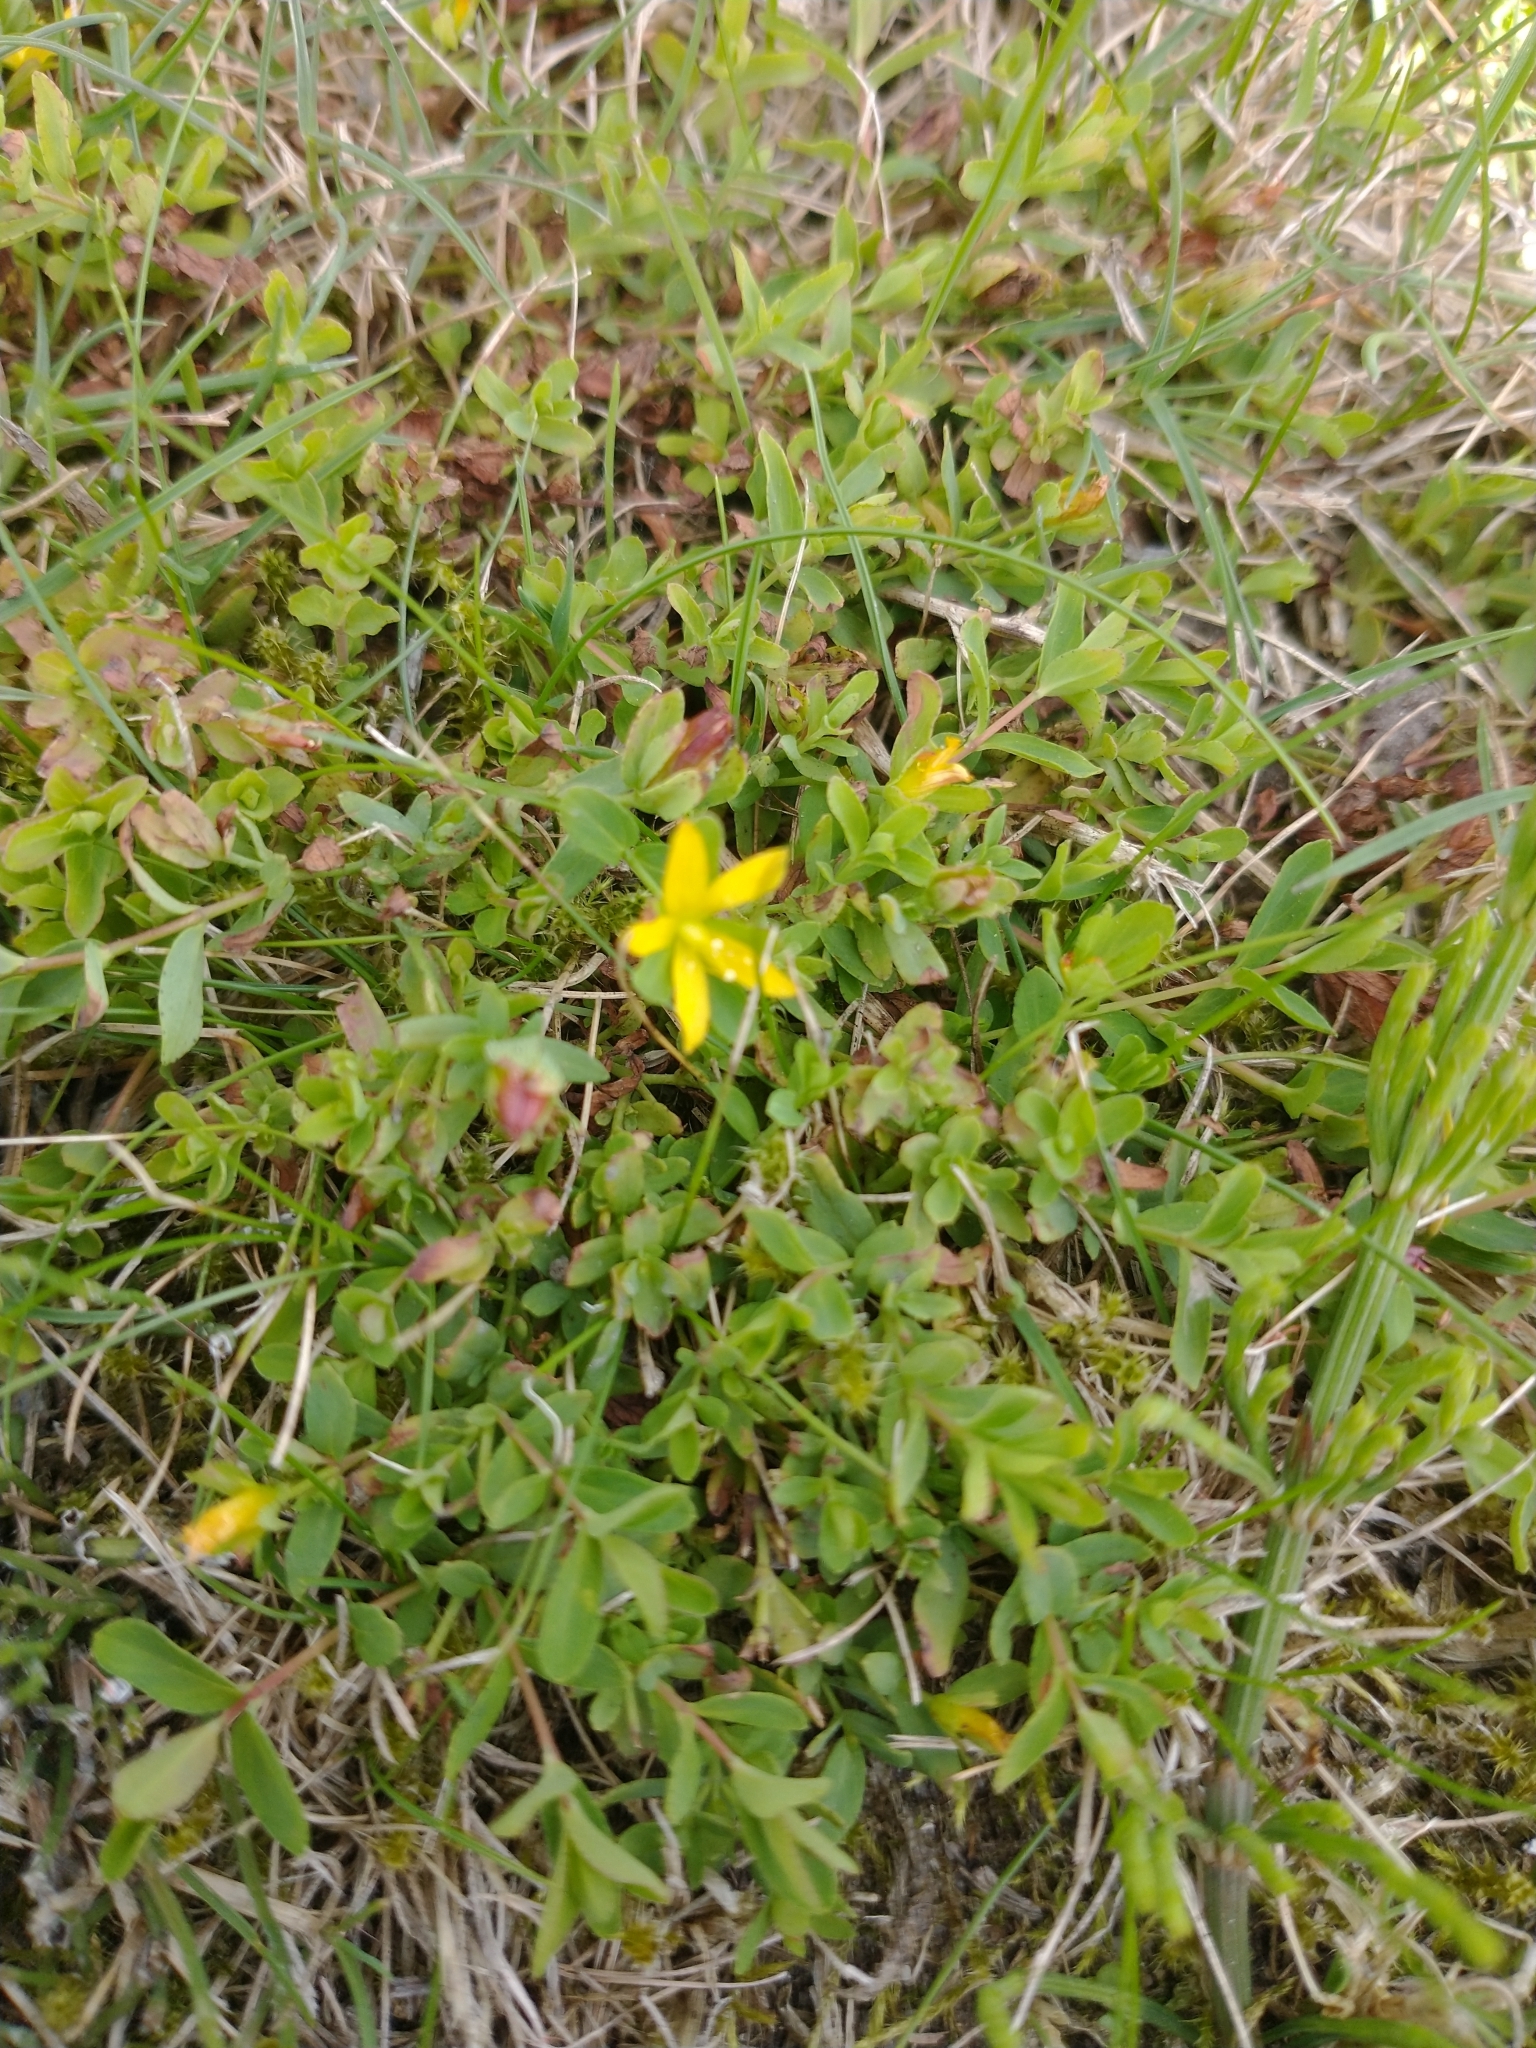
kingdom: Plantae
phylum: Tracheophyta
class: Magnoliopsida
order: Malpighiales
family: Hypericaceae
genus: Hypericum
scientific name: Hypericum humifusum
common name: Trailing st. john's-wort
